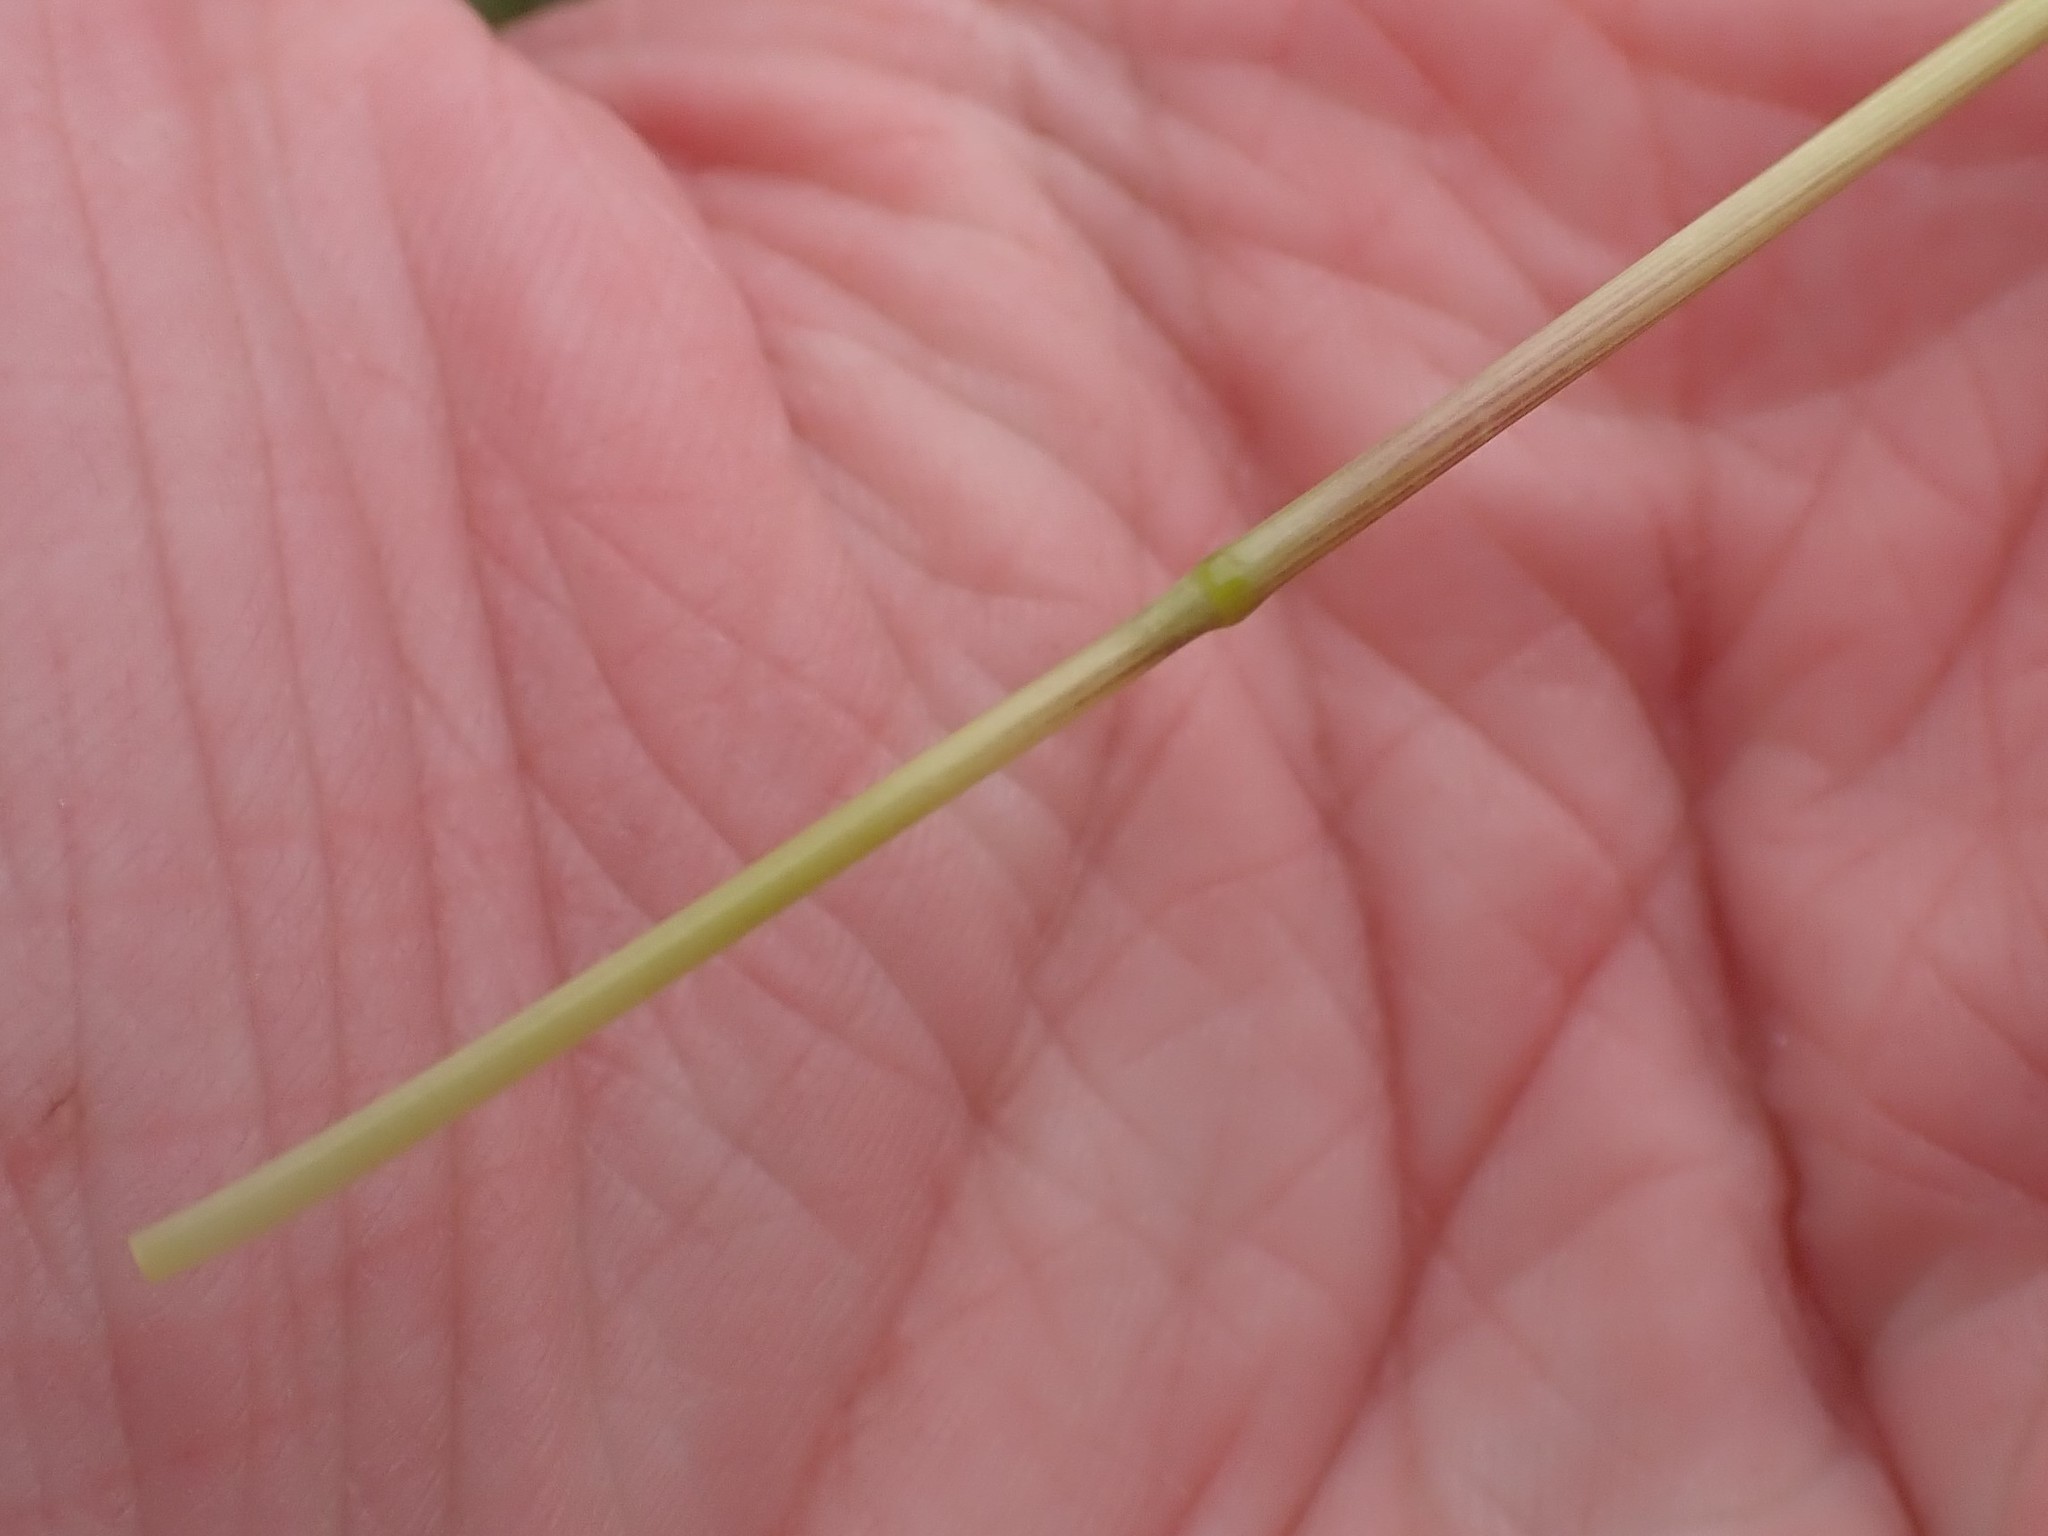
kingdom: Plantae
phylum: Tracheophyta
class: Liliopsida
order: Poales
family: Poaceae
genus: Poa
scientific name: Poa bulbosa
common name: Bulbous bluegrass
